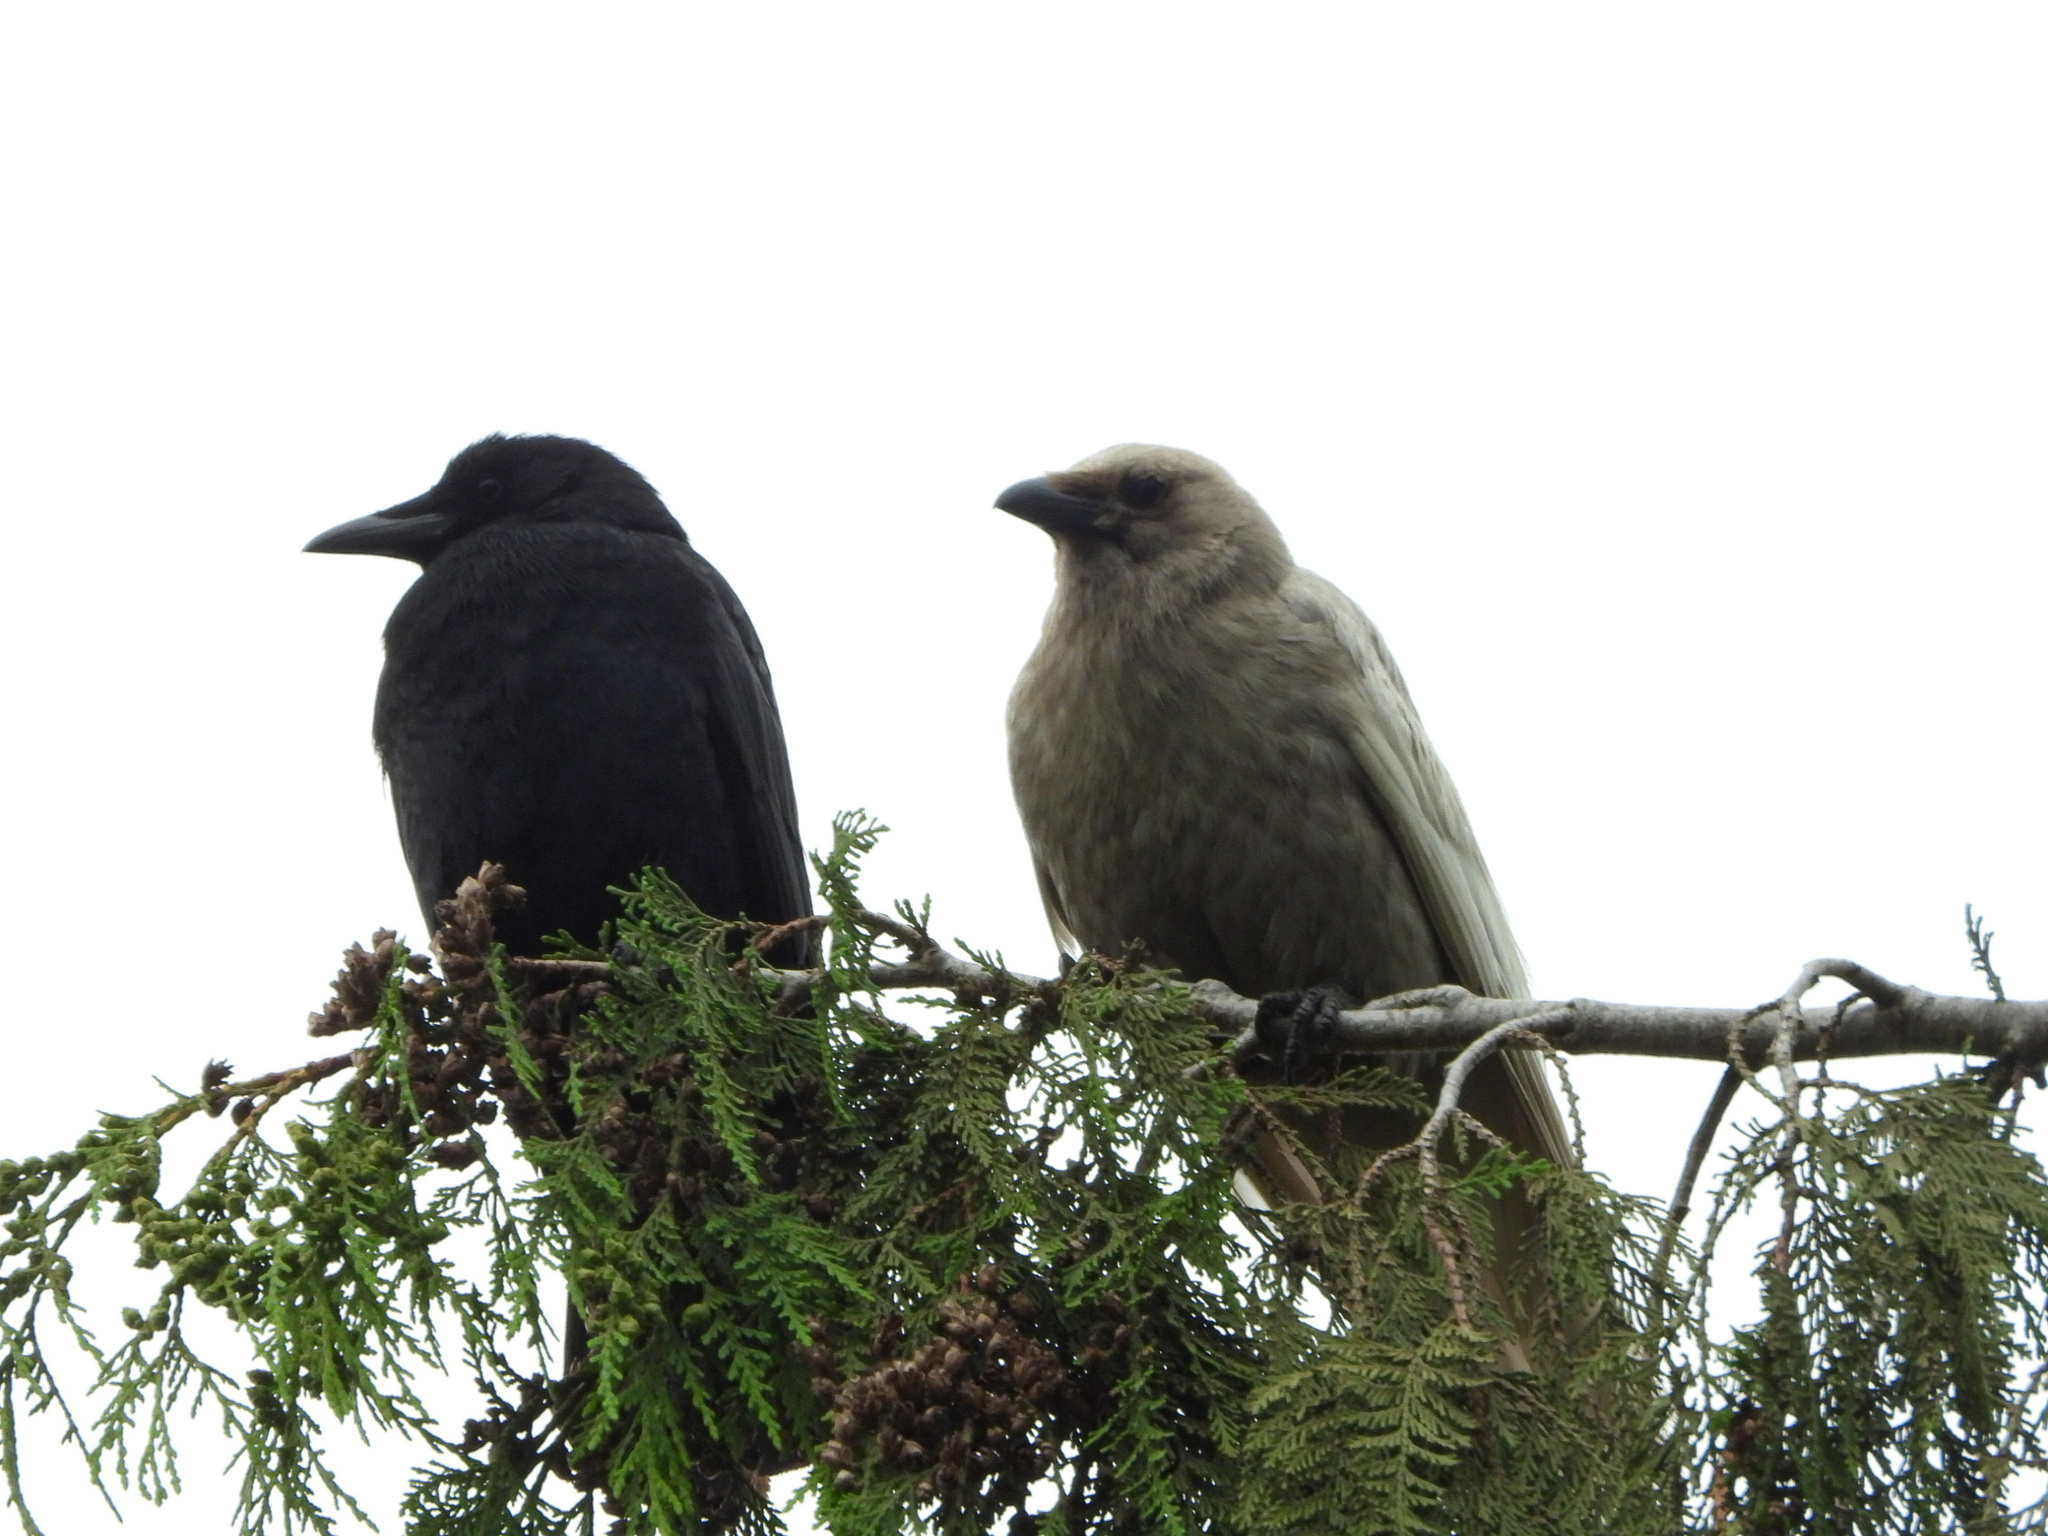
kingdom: Animalia
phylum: Chordata
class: Aves
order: Passeriformes
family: Corvidae
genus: Corvus
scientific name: Corvus brachyrhynchos
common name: American crow
